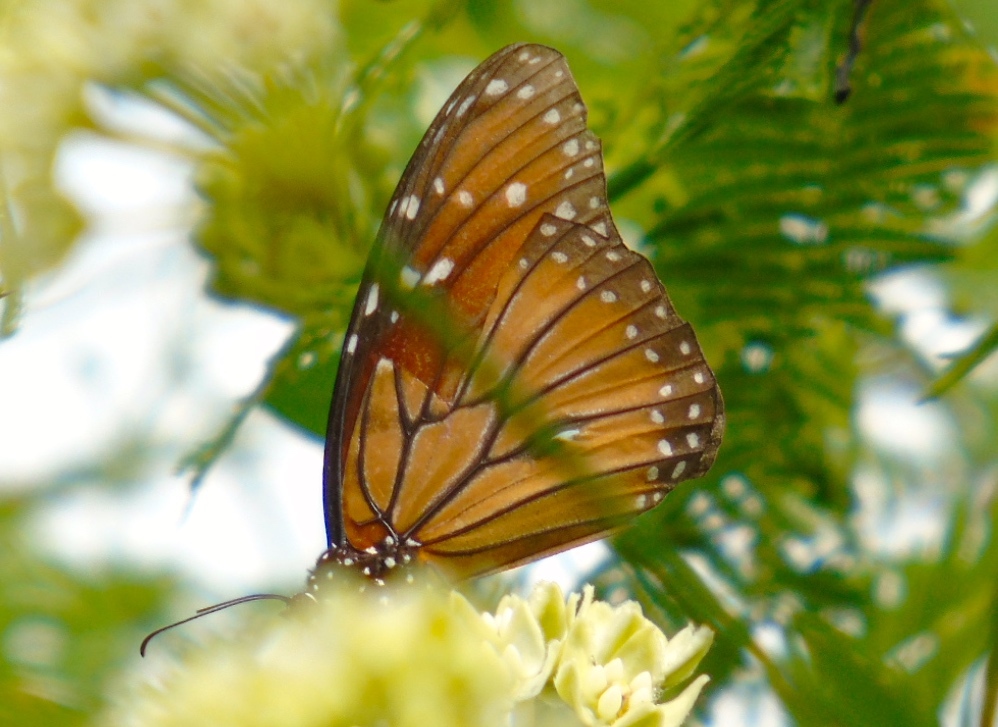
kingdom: Animalia
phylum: Arthropoda
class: Insecta
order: Lepidoptera
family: Nymphalidae
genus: Danaus
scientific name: Danaus eresimus
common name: Soldier
